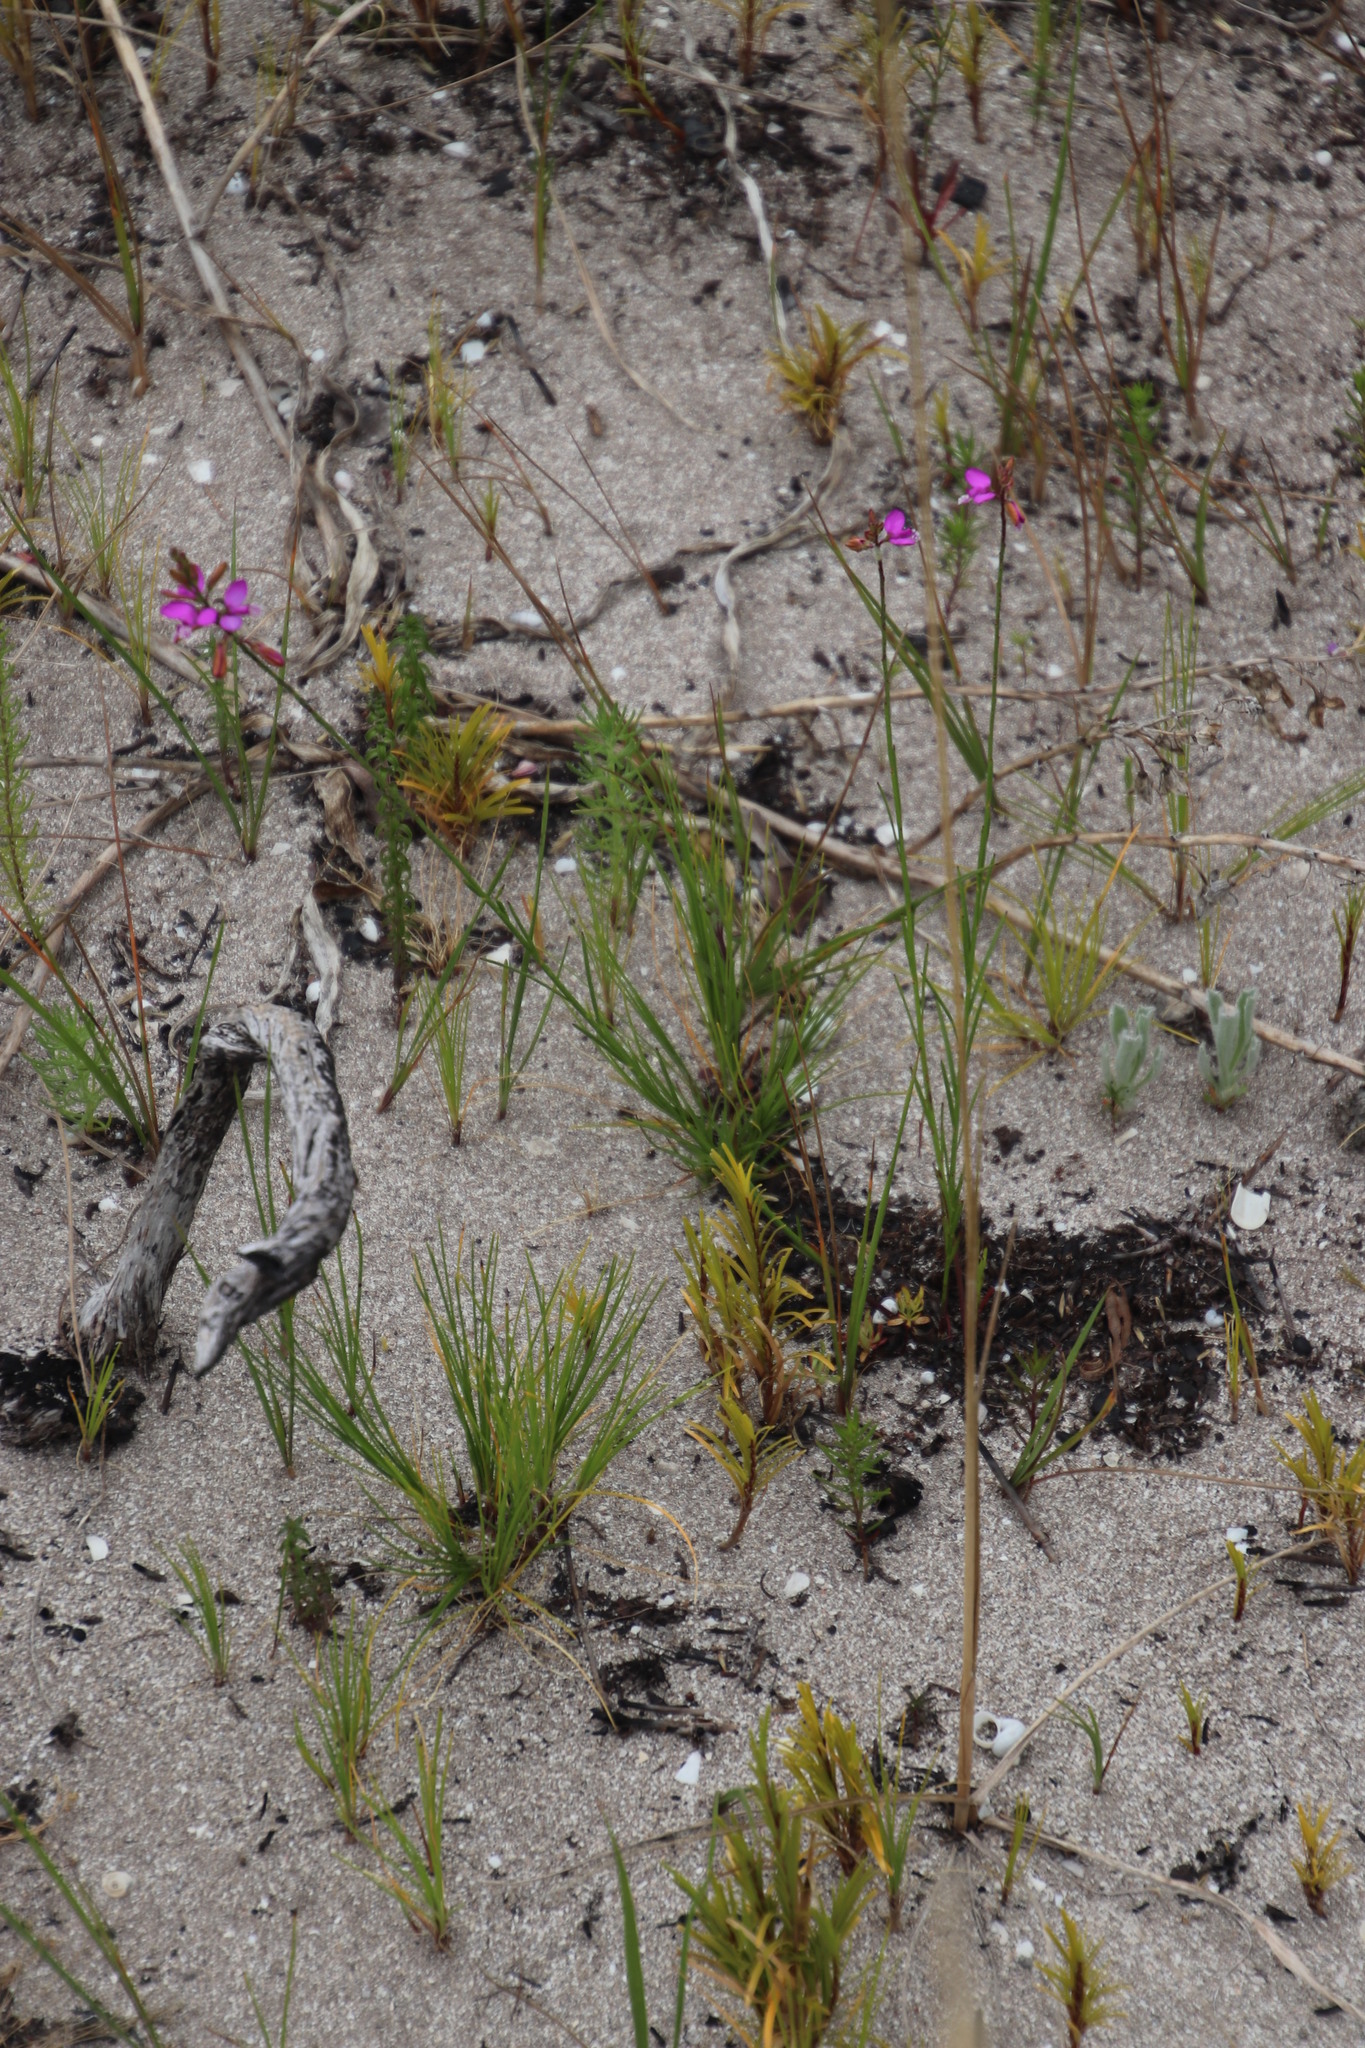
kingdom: Plantae
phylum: Tracheophyta
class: Magnoliopsida
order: Fabales
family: Polygalaceae
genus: Polygala
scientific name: Polygala garcini
